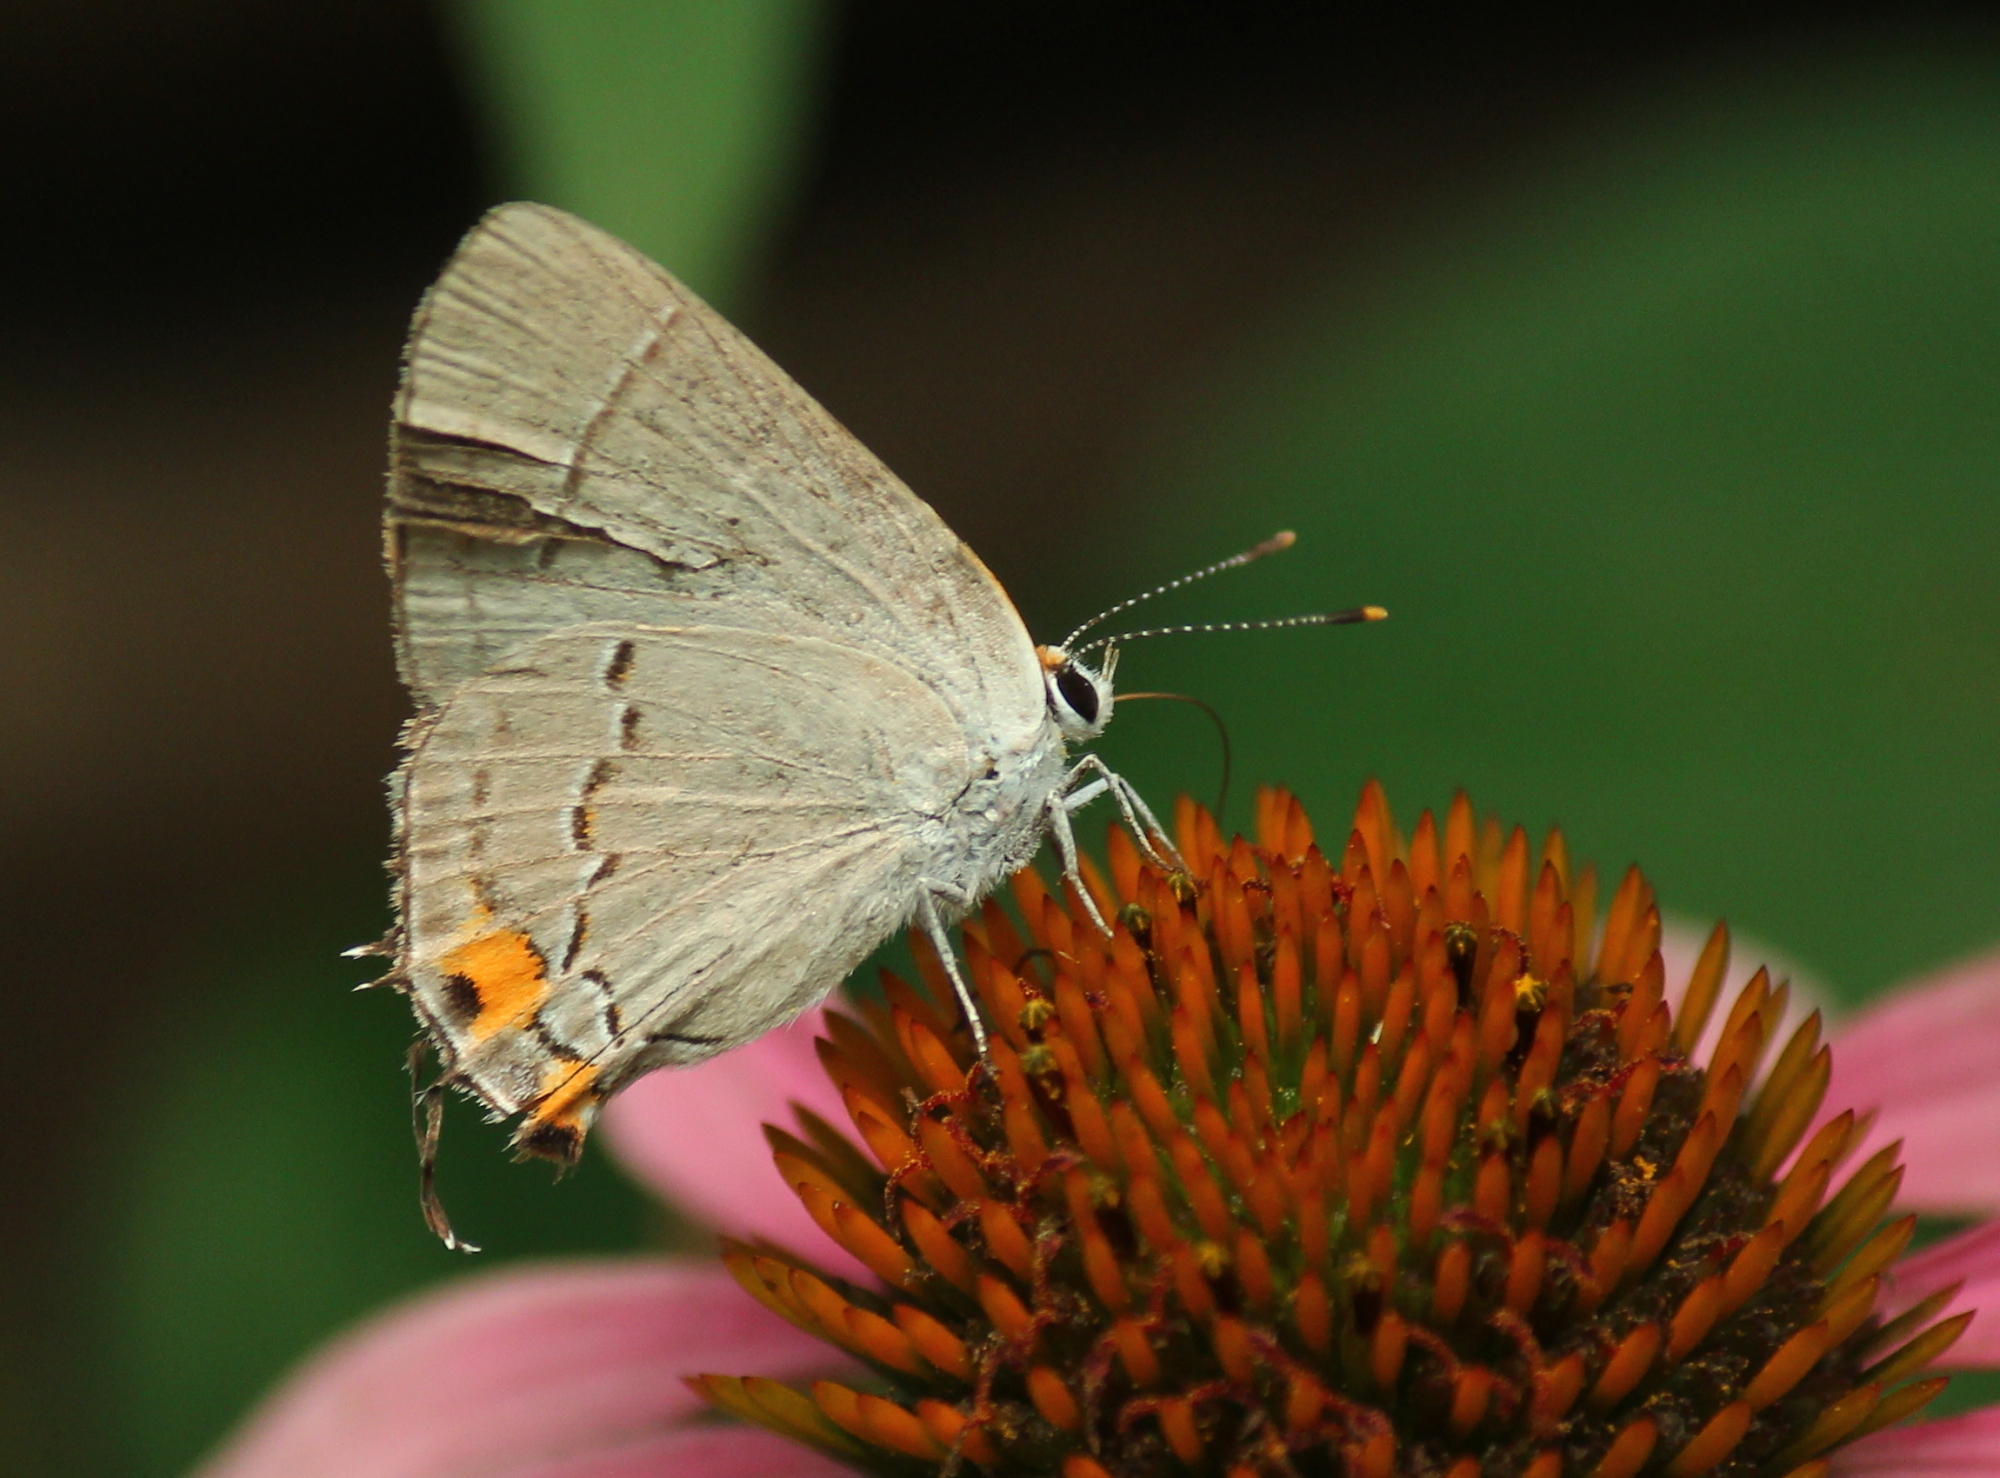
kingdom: Animalia
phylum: Arthropoda
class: Insecta
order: Lepidoptera
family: Lycaenidae
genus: Strymon
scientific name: Strymon melinus
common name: Gray hairstreak
